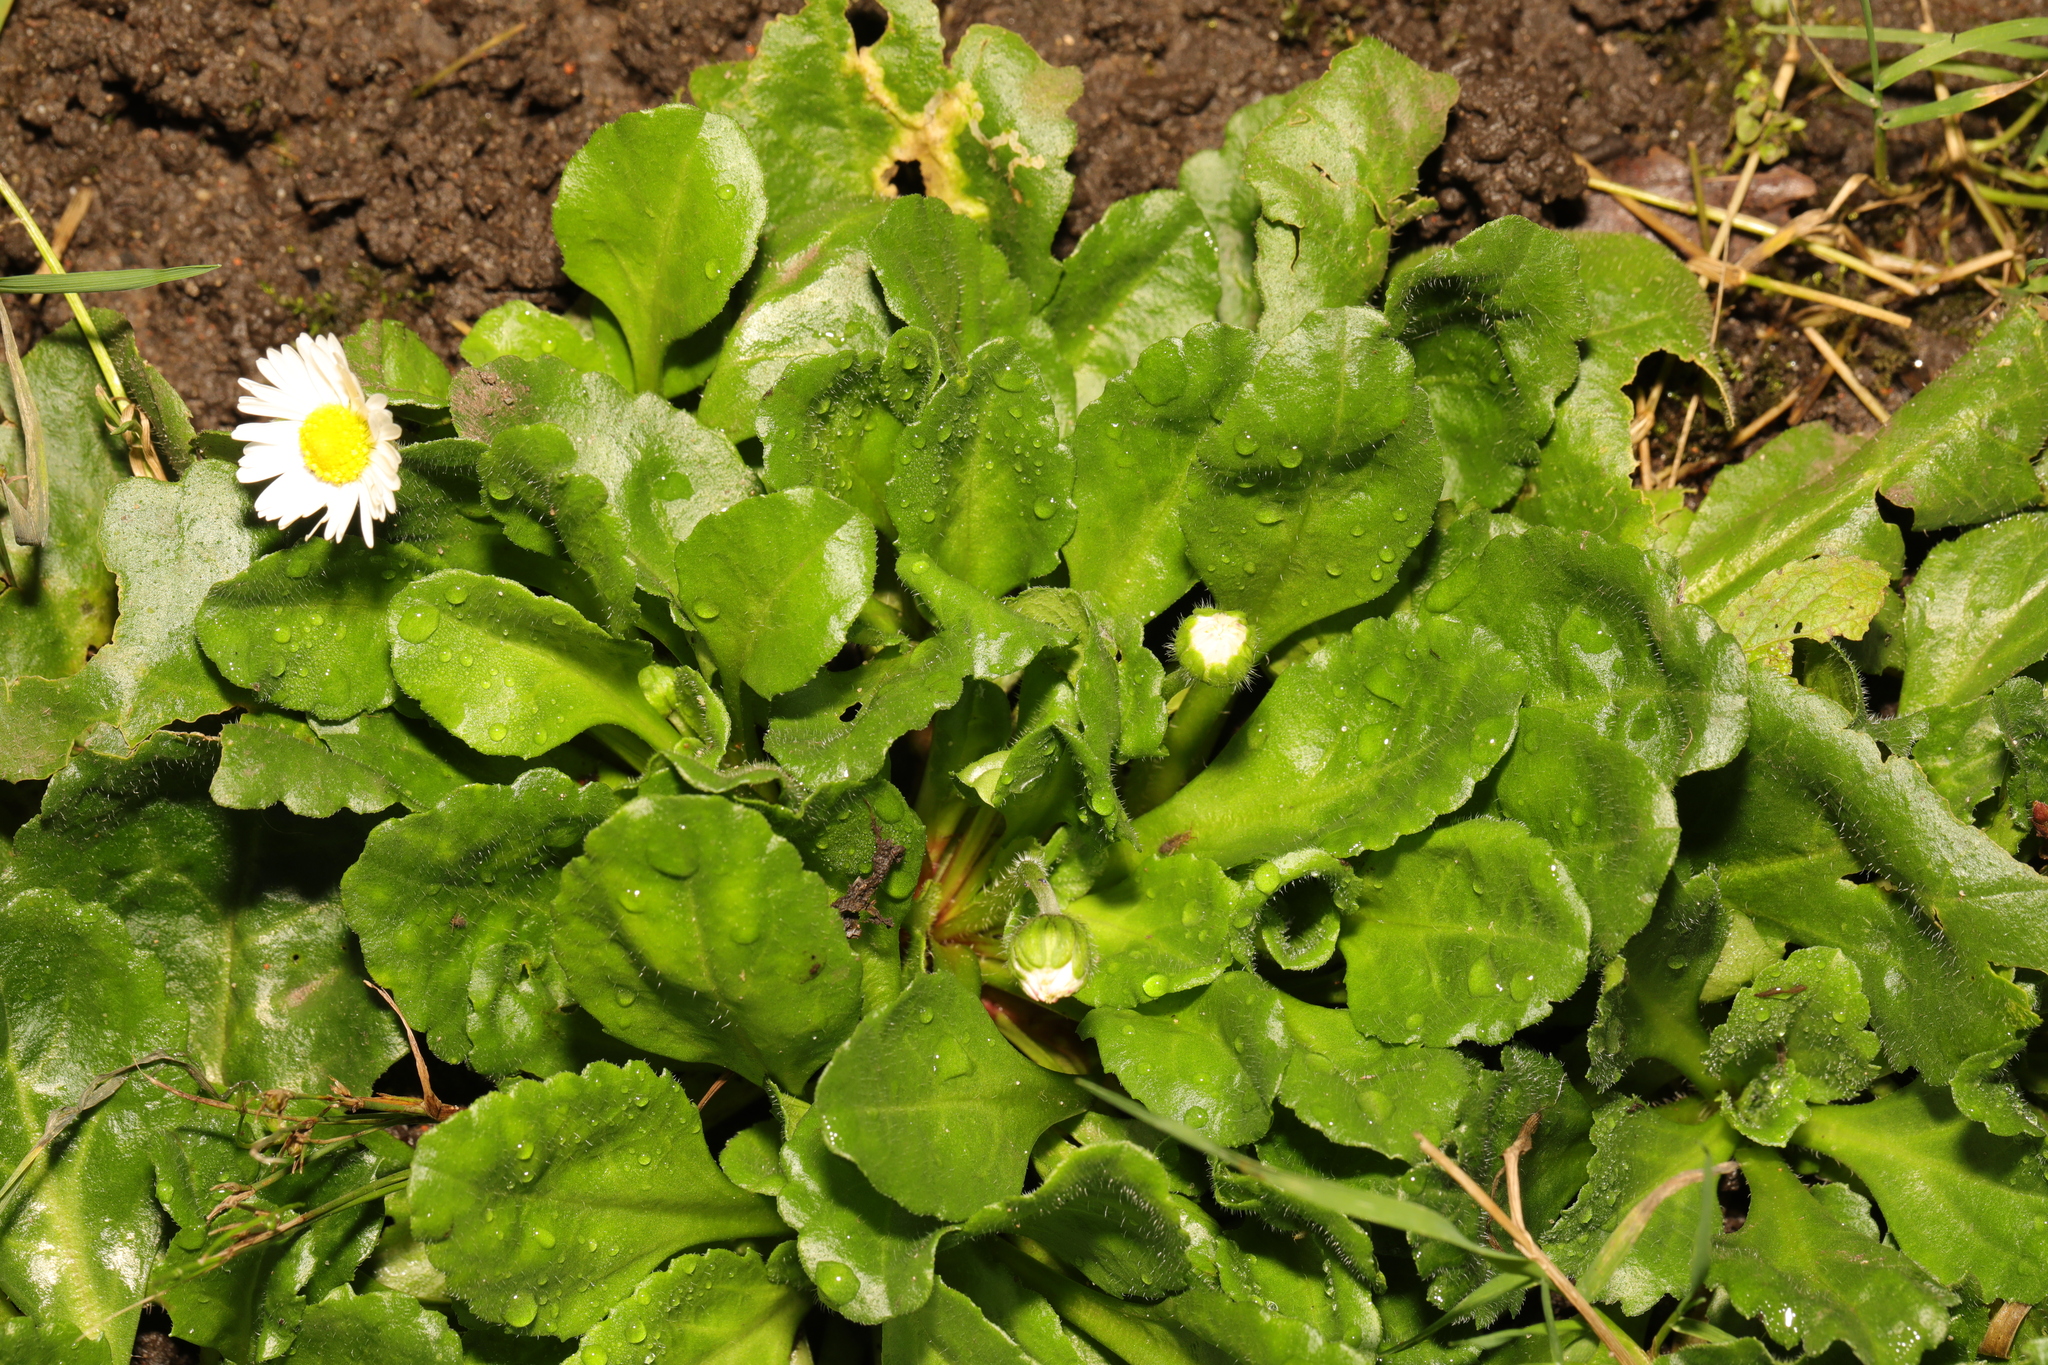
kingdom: Plantae
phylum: Tracheophyta
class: Magnoliopsida
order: Asterales
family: Asteraceae
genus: Bellis
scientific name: Bellis perennis
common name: Lawndaisy
